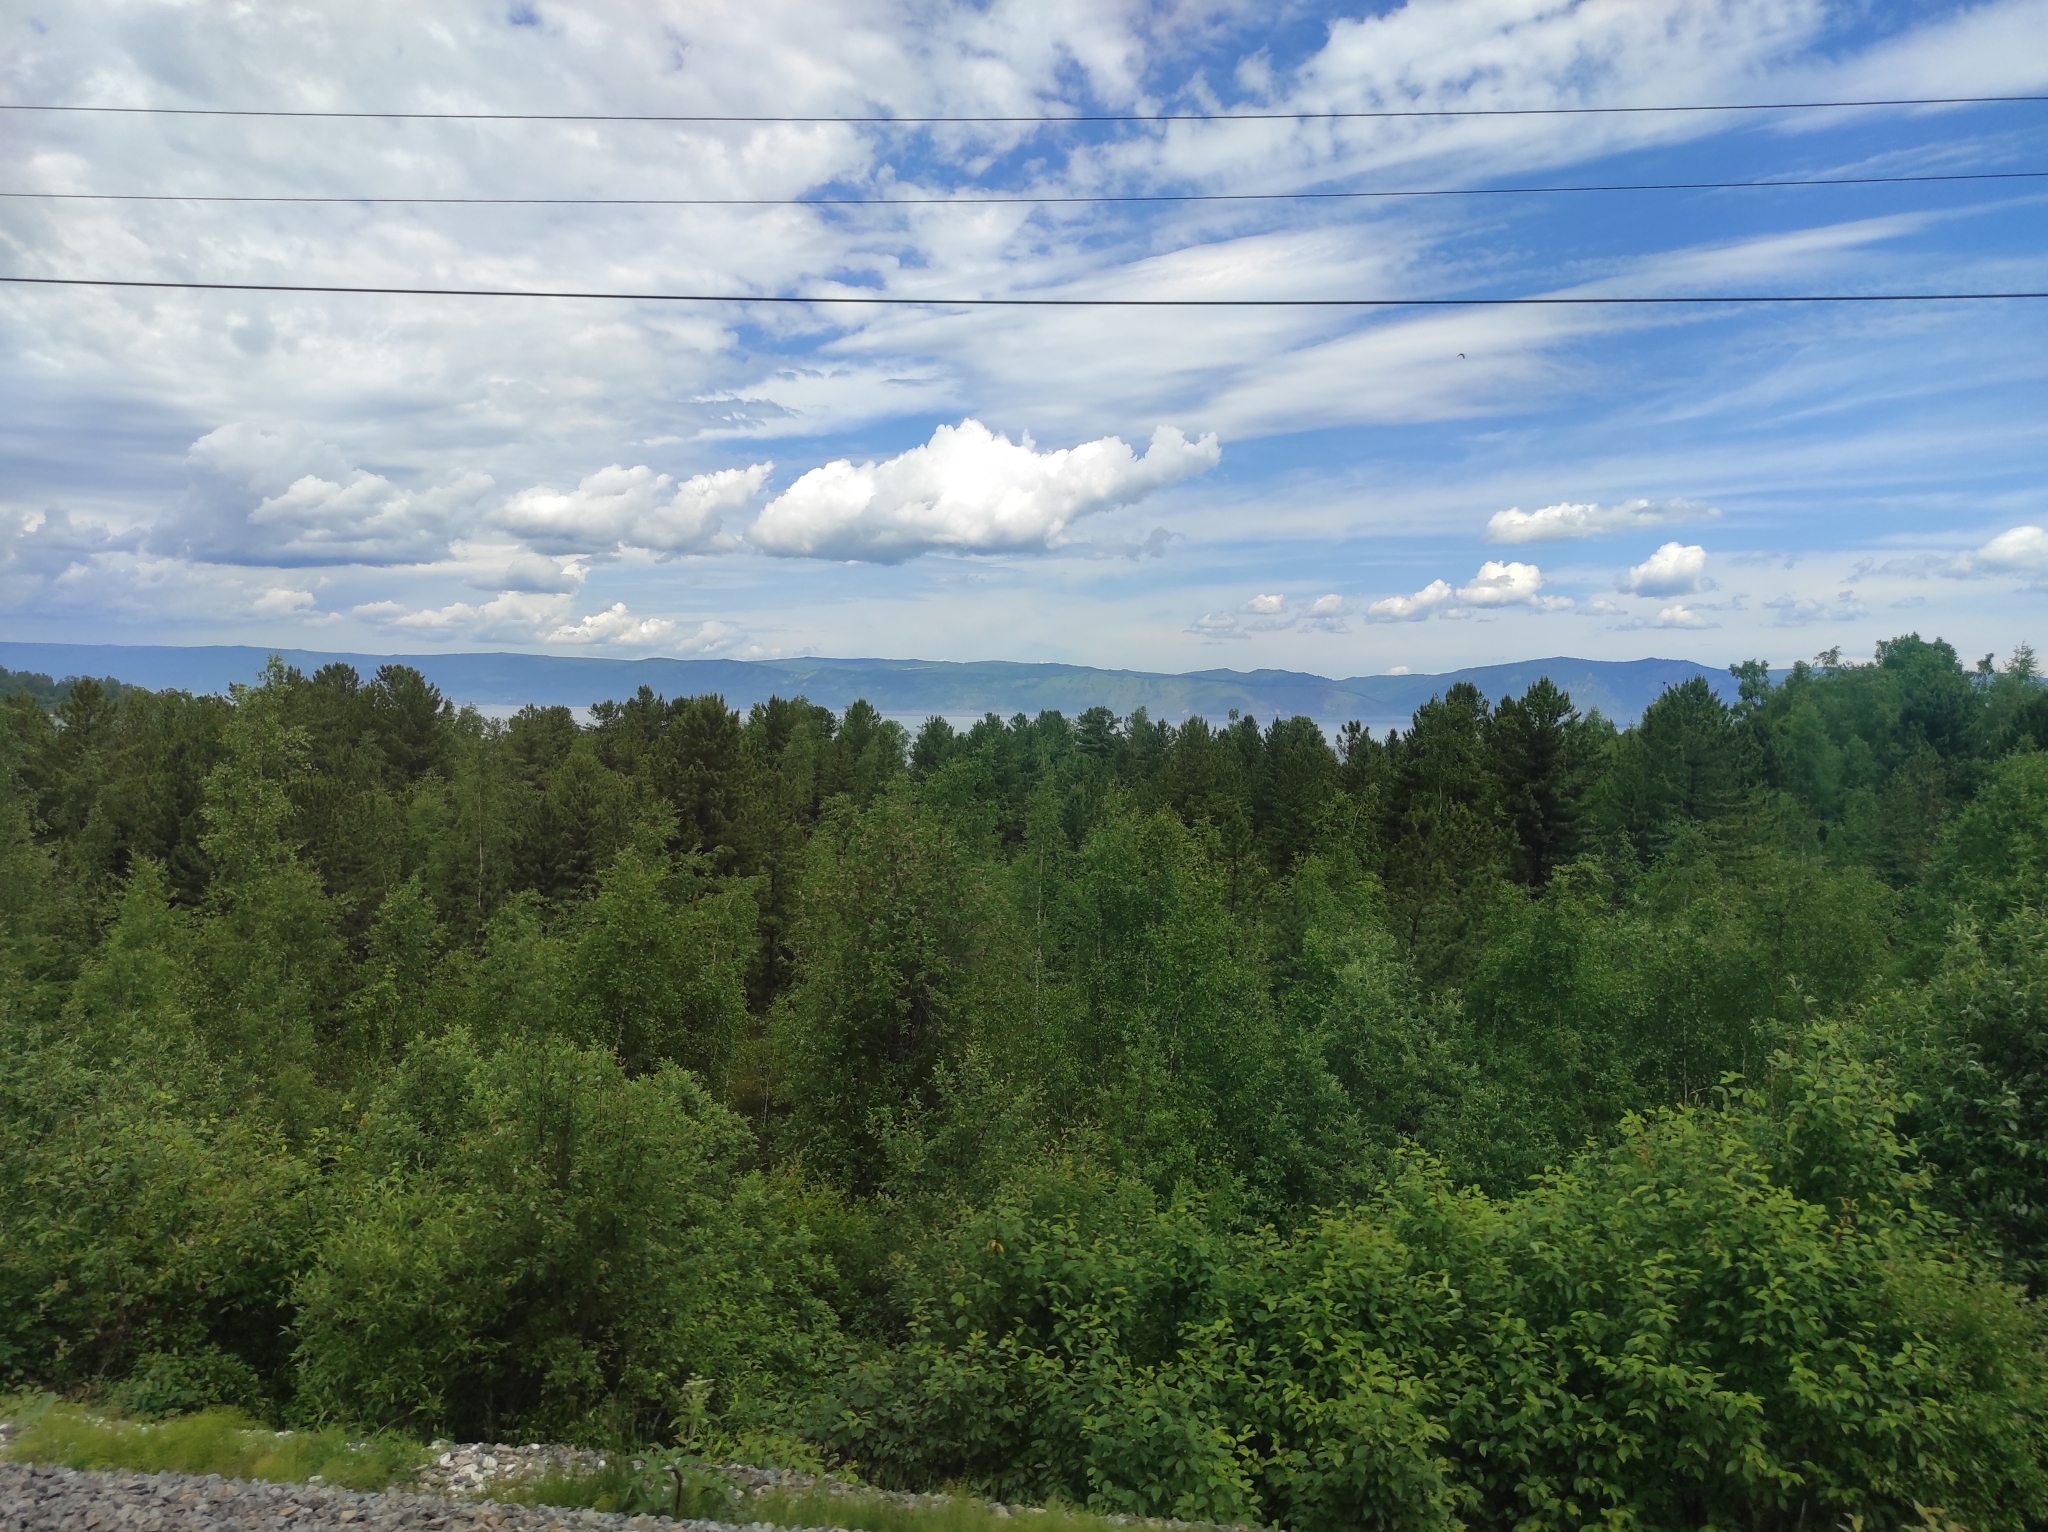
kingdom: Plantae
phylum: Tracheophyta
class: Pinopsida
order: Pinales
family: Pinaceae
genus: Pinus
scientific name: Pinus sibirica
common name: Siberian pine
